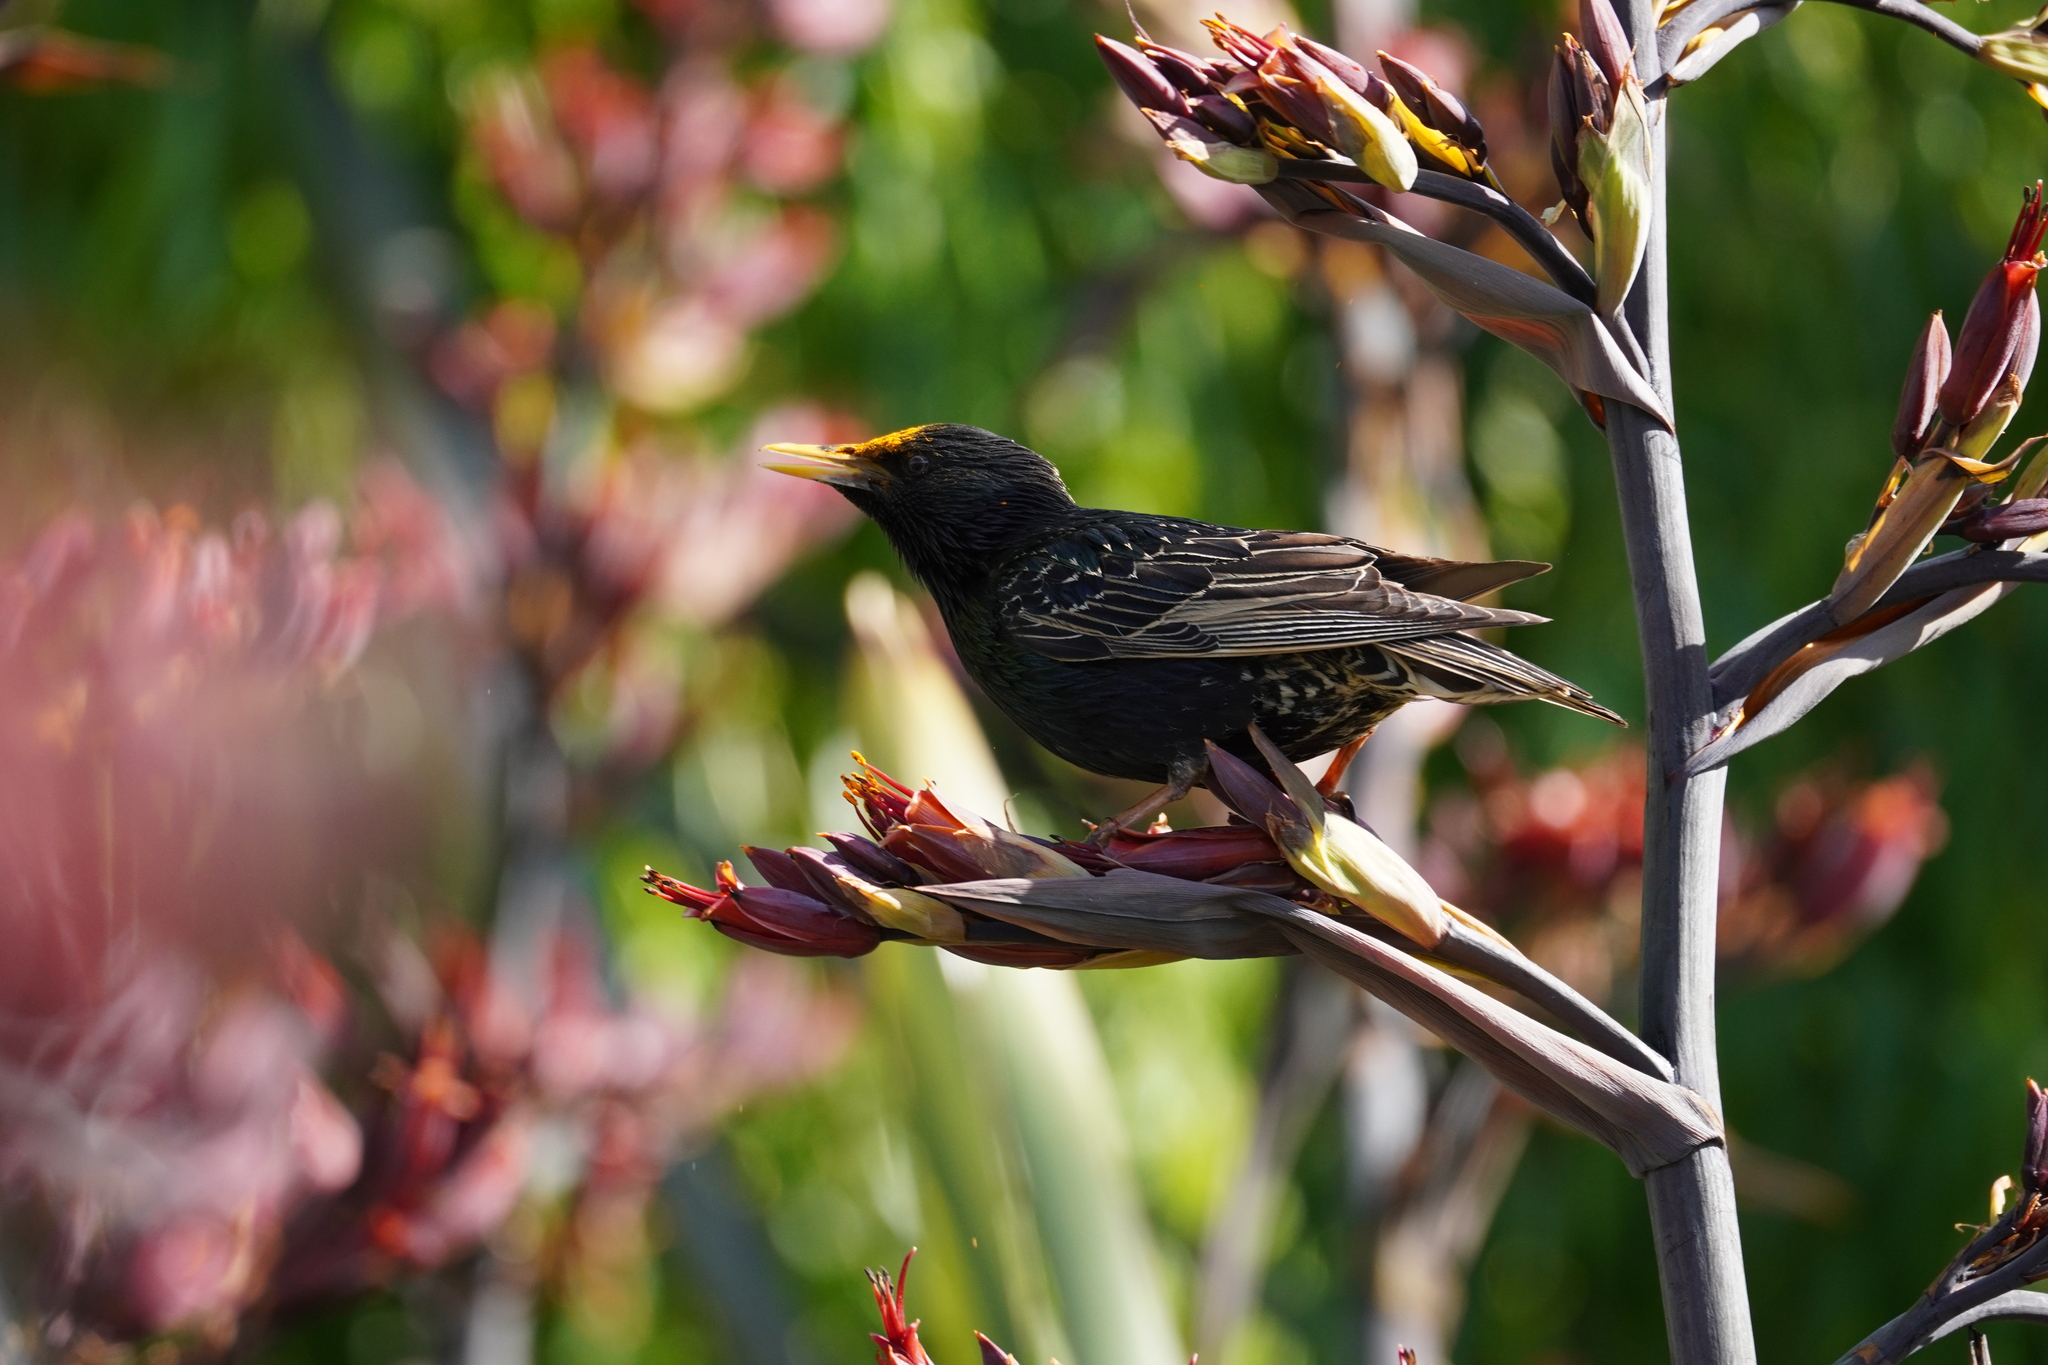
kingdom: Animalia
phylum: Chordata
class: Aves
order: Passeriformes
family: Sturnidae
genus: Sturnus
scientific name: Sturnus vulgaris
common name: Common starling
